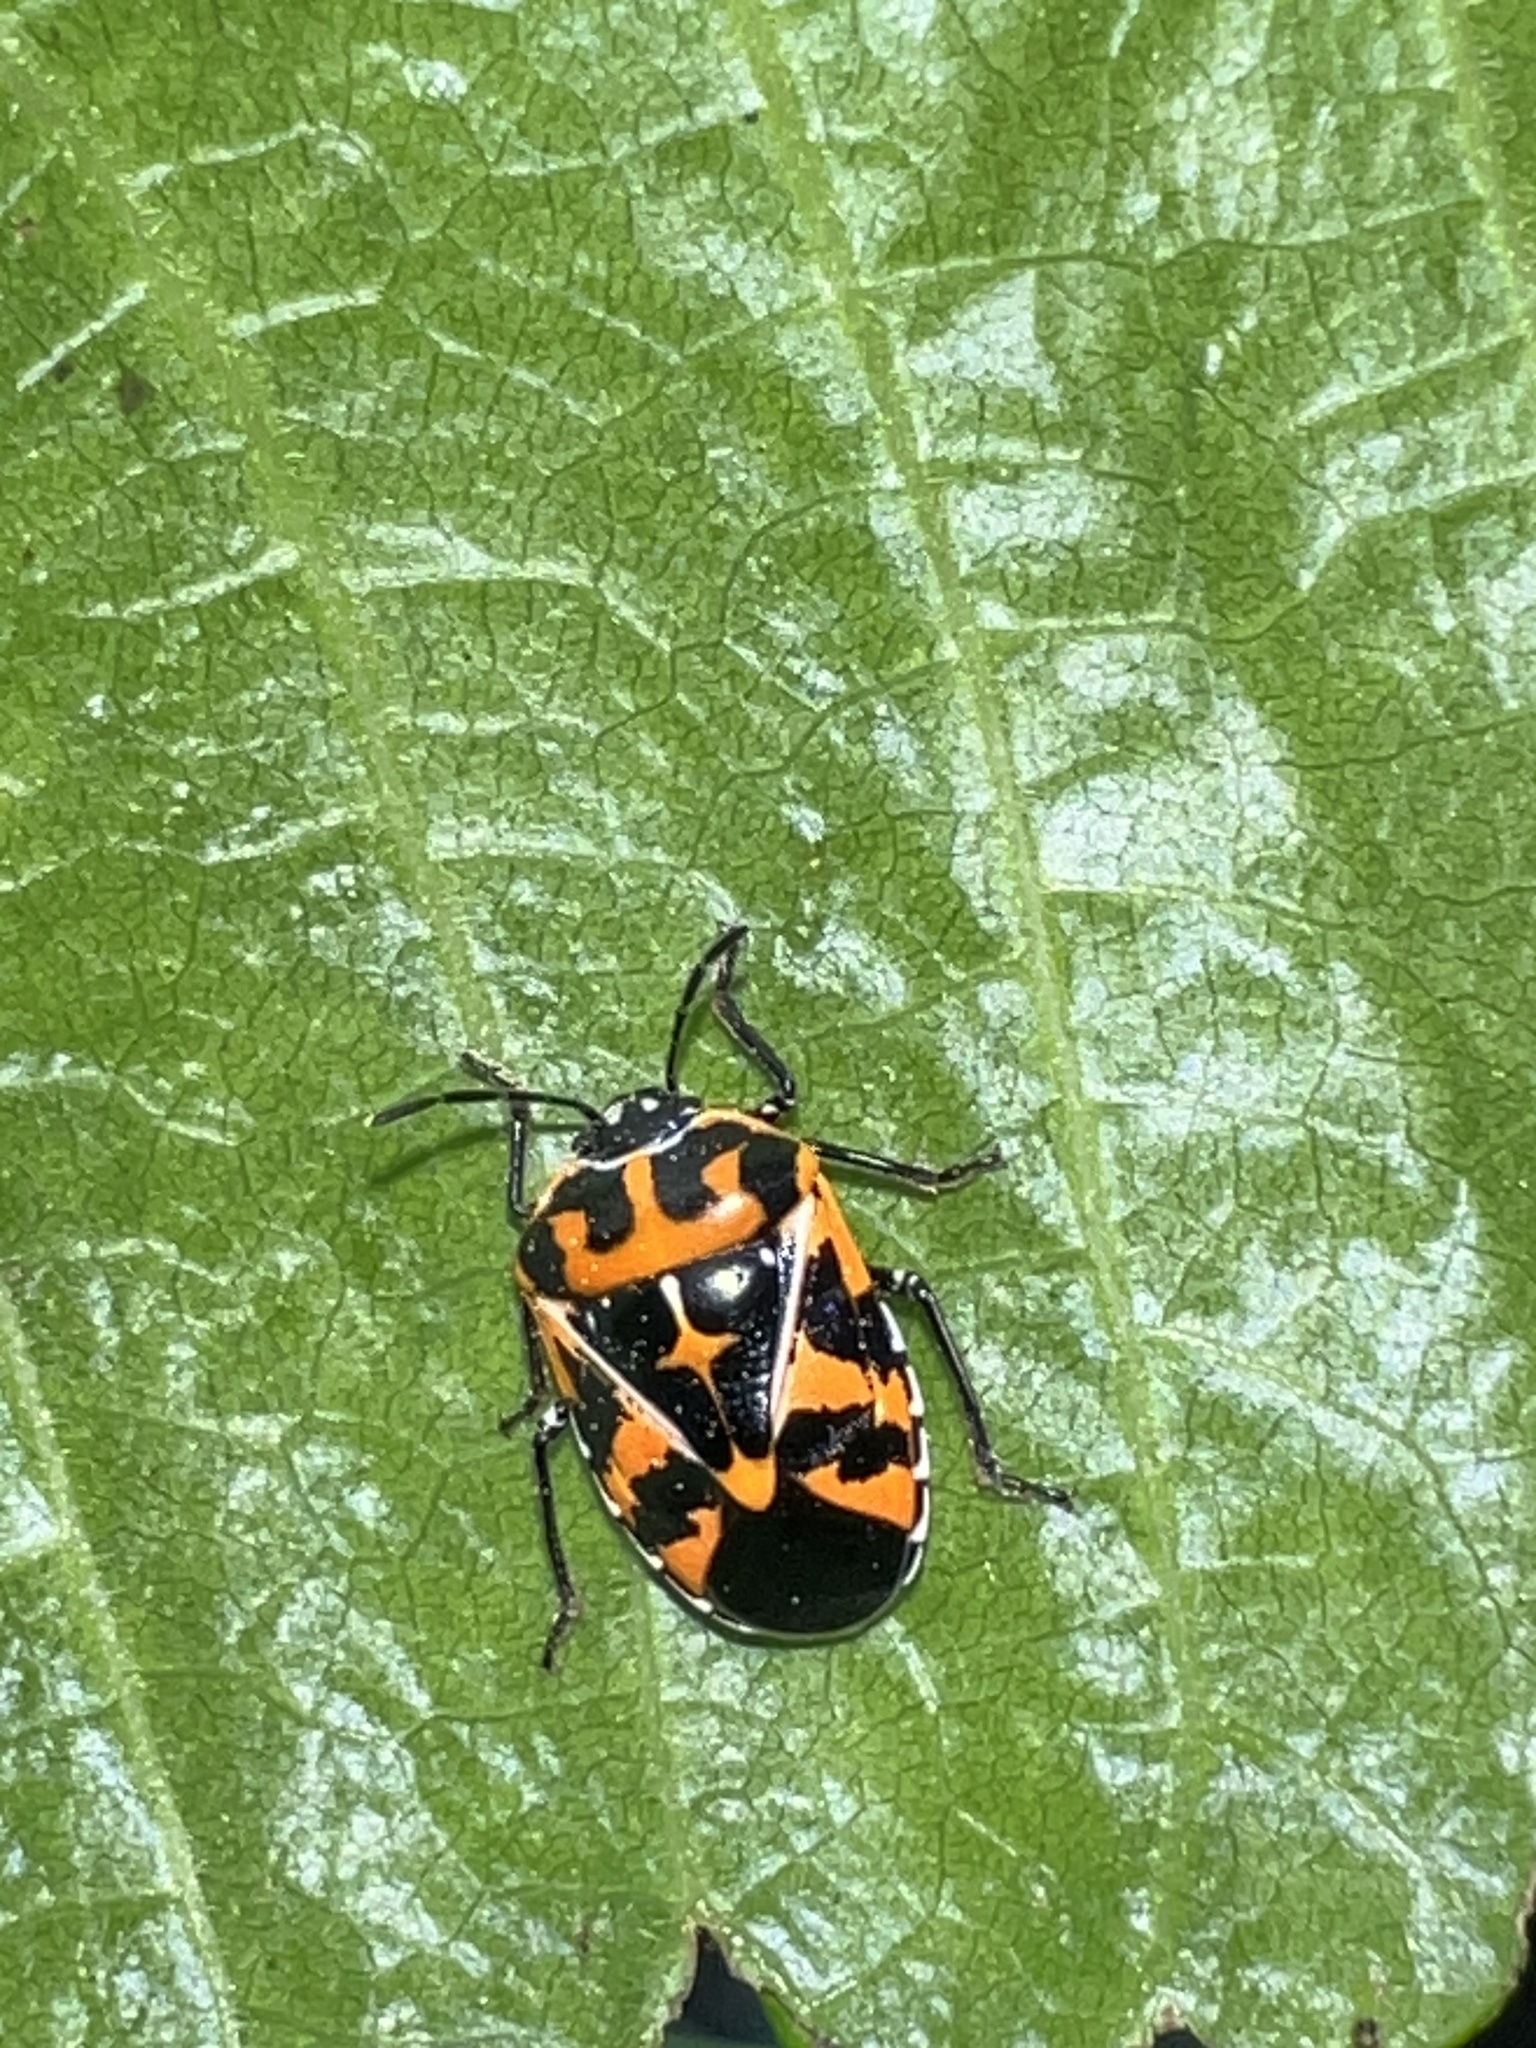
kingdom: Animalia
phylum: Arthropoda
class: Insecta
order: Hemiptera
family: Pentatomidae
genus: Murgantia
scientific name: Murgantia histrionica
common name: Harlequin bug
